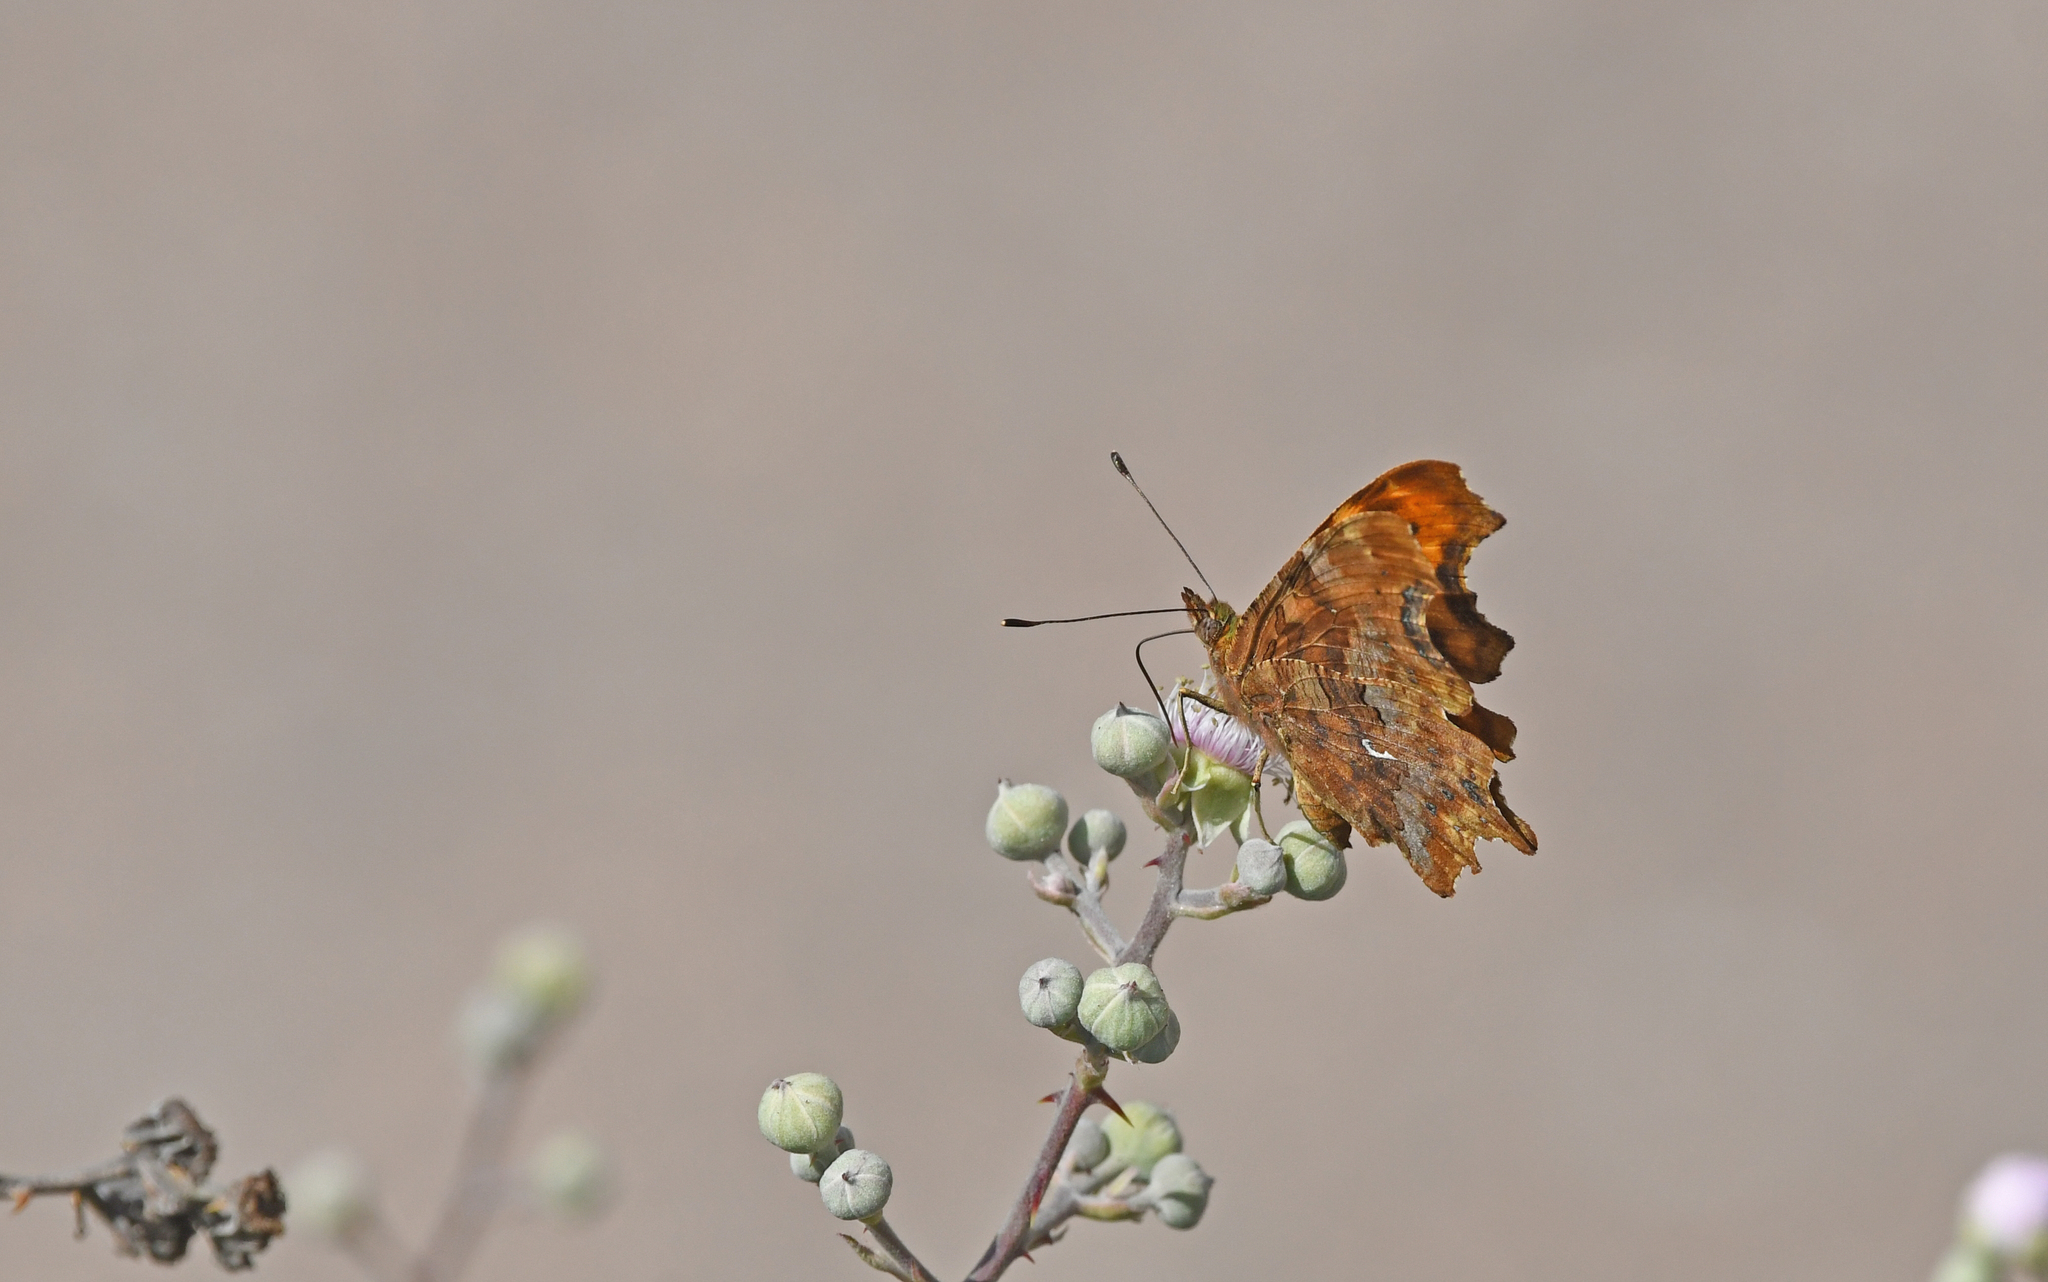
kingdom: Animalia
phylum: Arthropoda
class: Insecta
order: Lepidoptera
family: Nymphalidae
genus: Polygonia
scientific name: Polygonia c-album
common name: Comma
